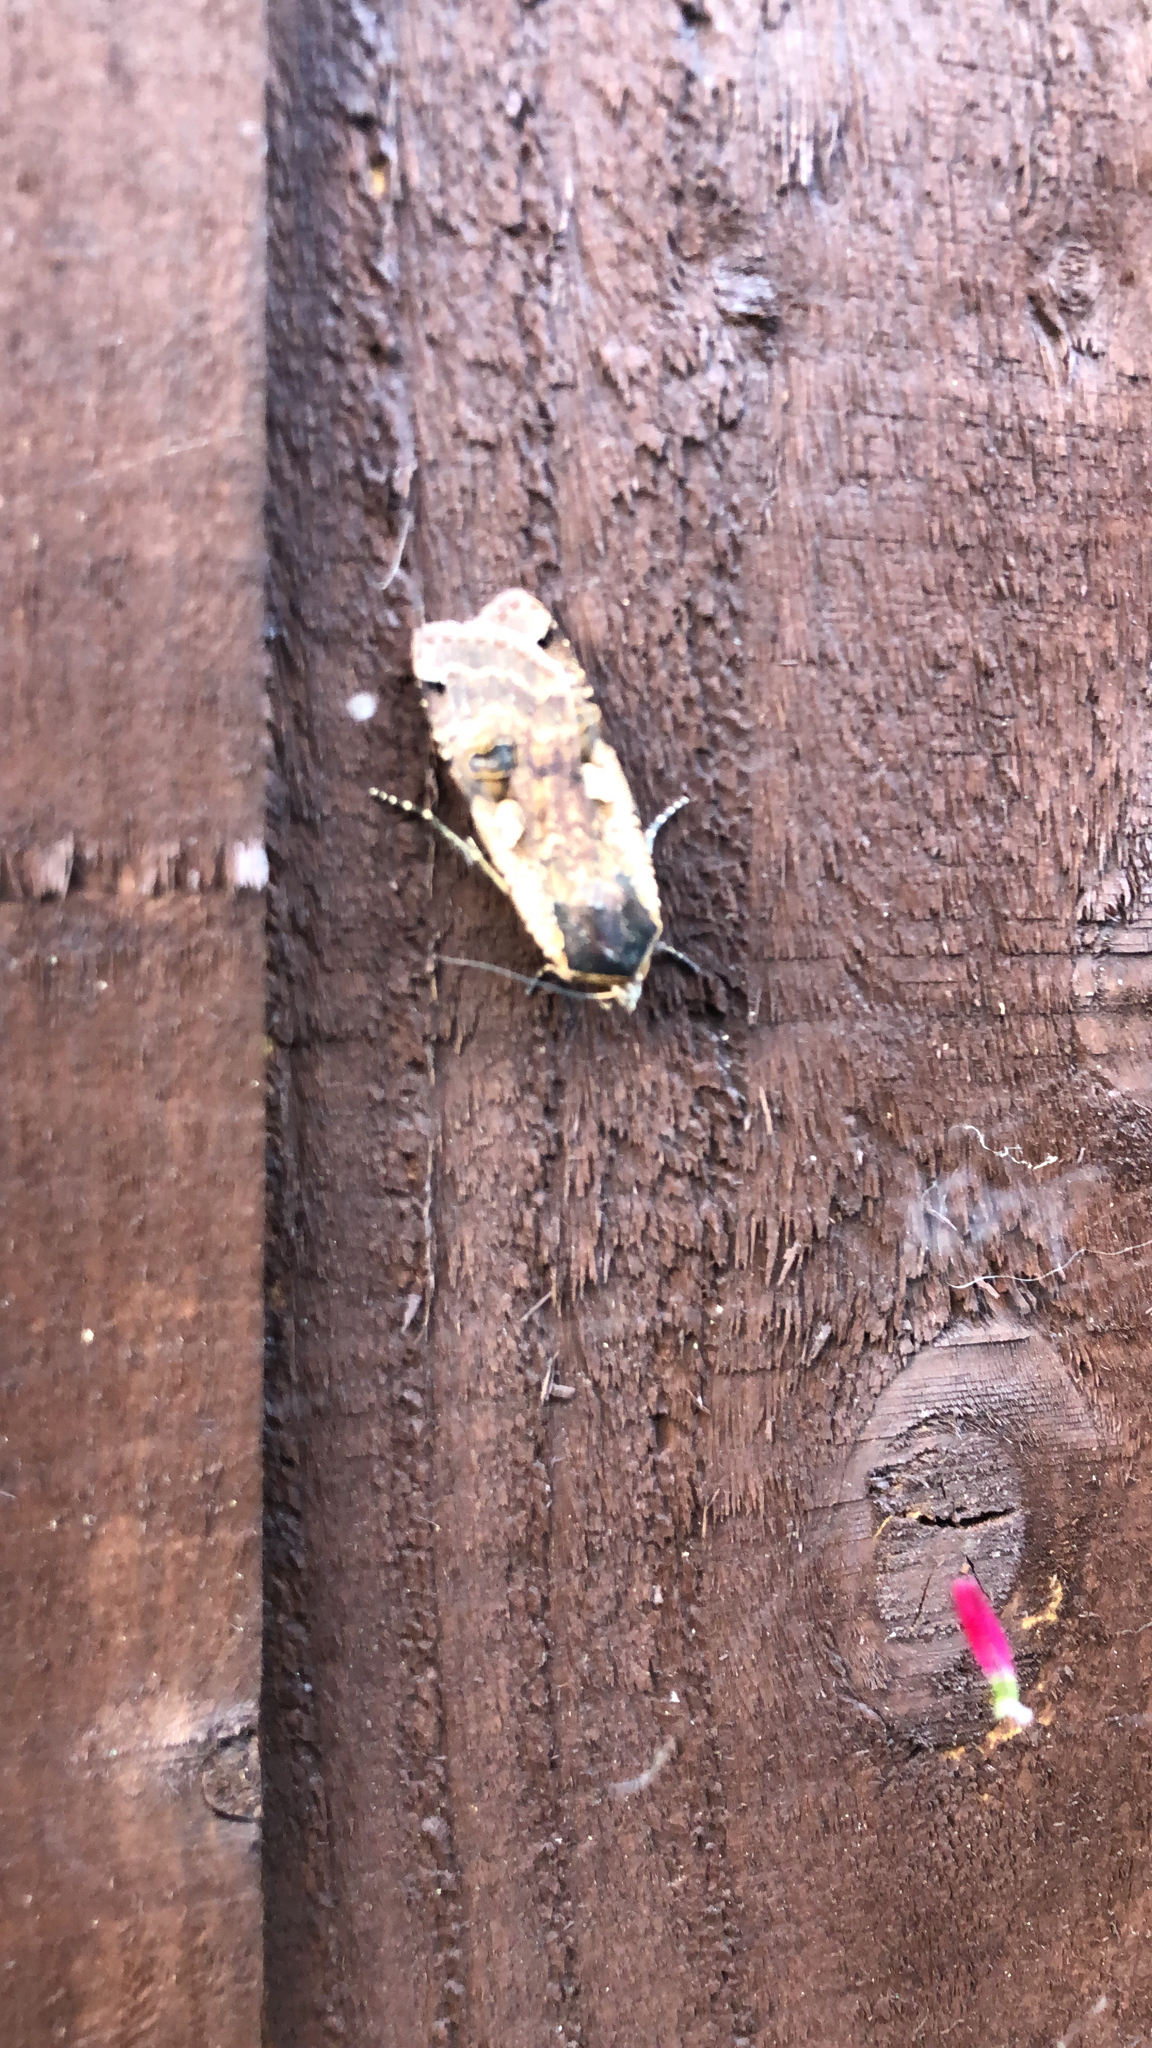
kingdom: Animalia
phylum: Arthropoda
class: Insecta
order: Lepidoptera
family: Noctuidae
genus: Noctua
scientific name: Noctua pronuba
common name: Large yellow underwing
